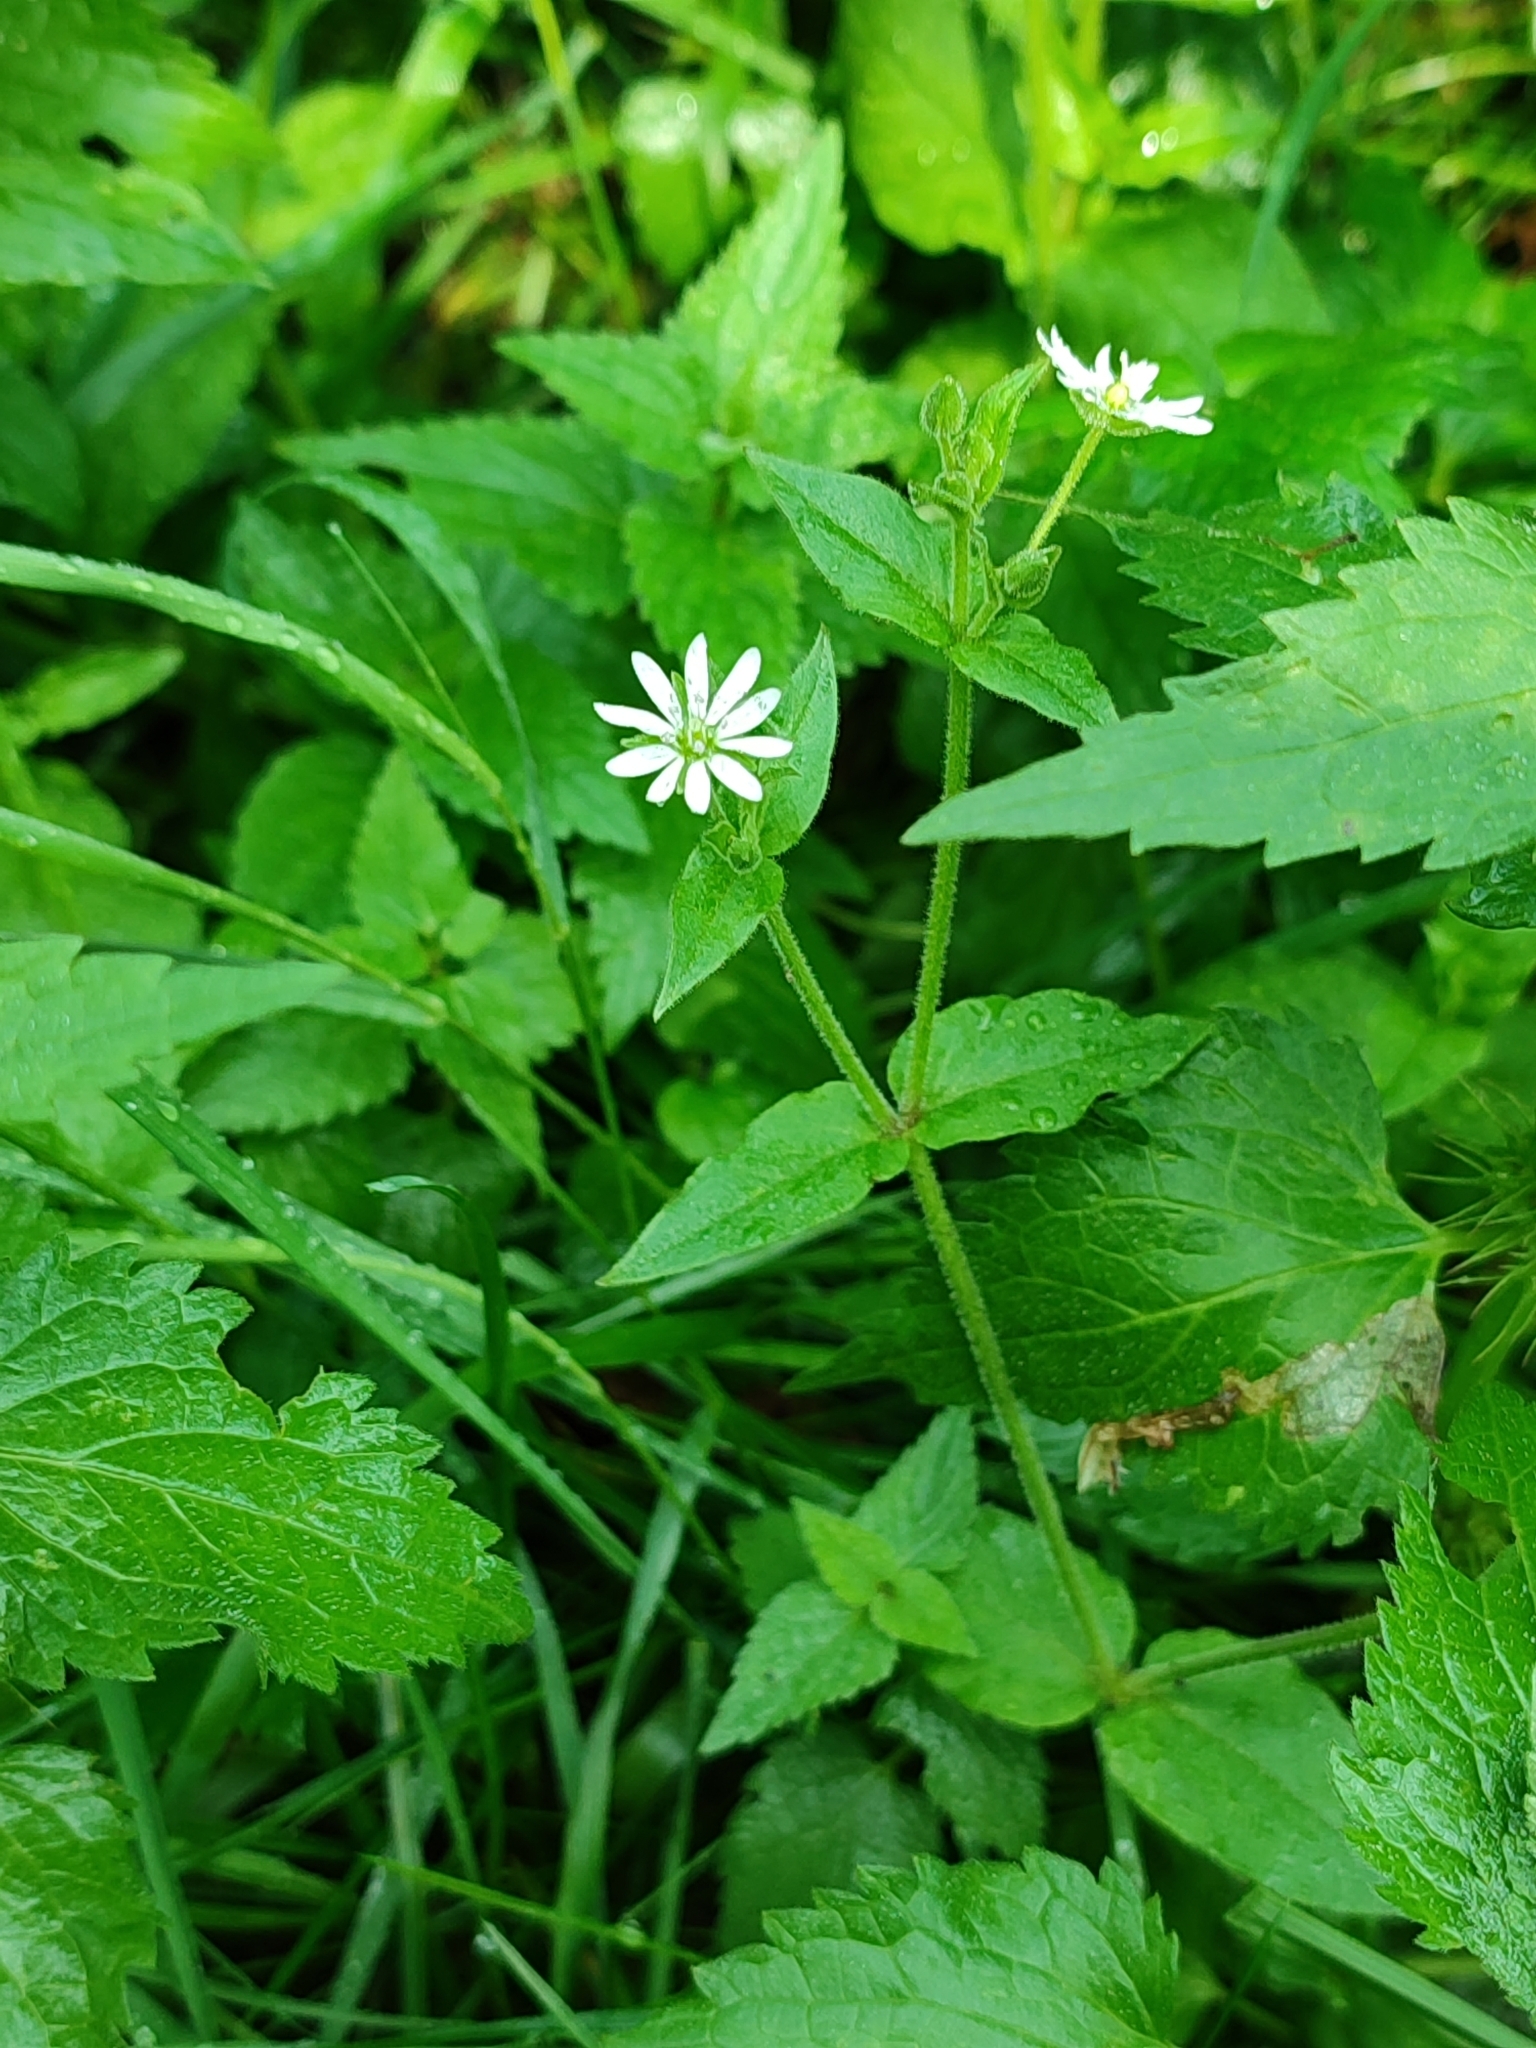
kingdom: Plantae
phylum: Tracheophyta
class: Magnoliopsida
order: Caryophyllales
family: Caryophyllaceae
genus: Stellaria
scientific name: Stellaria aquatica
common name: Water chickweed
